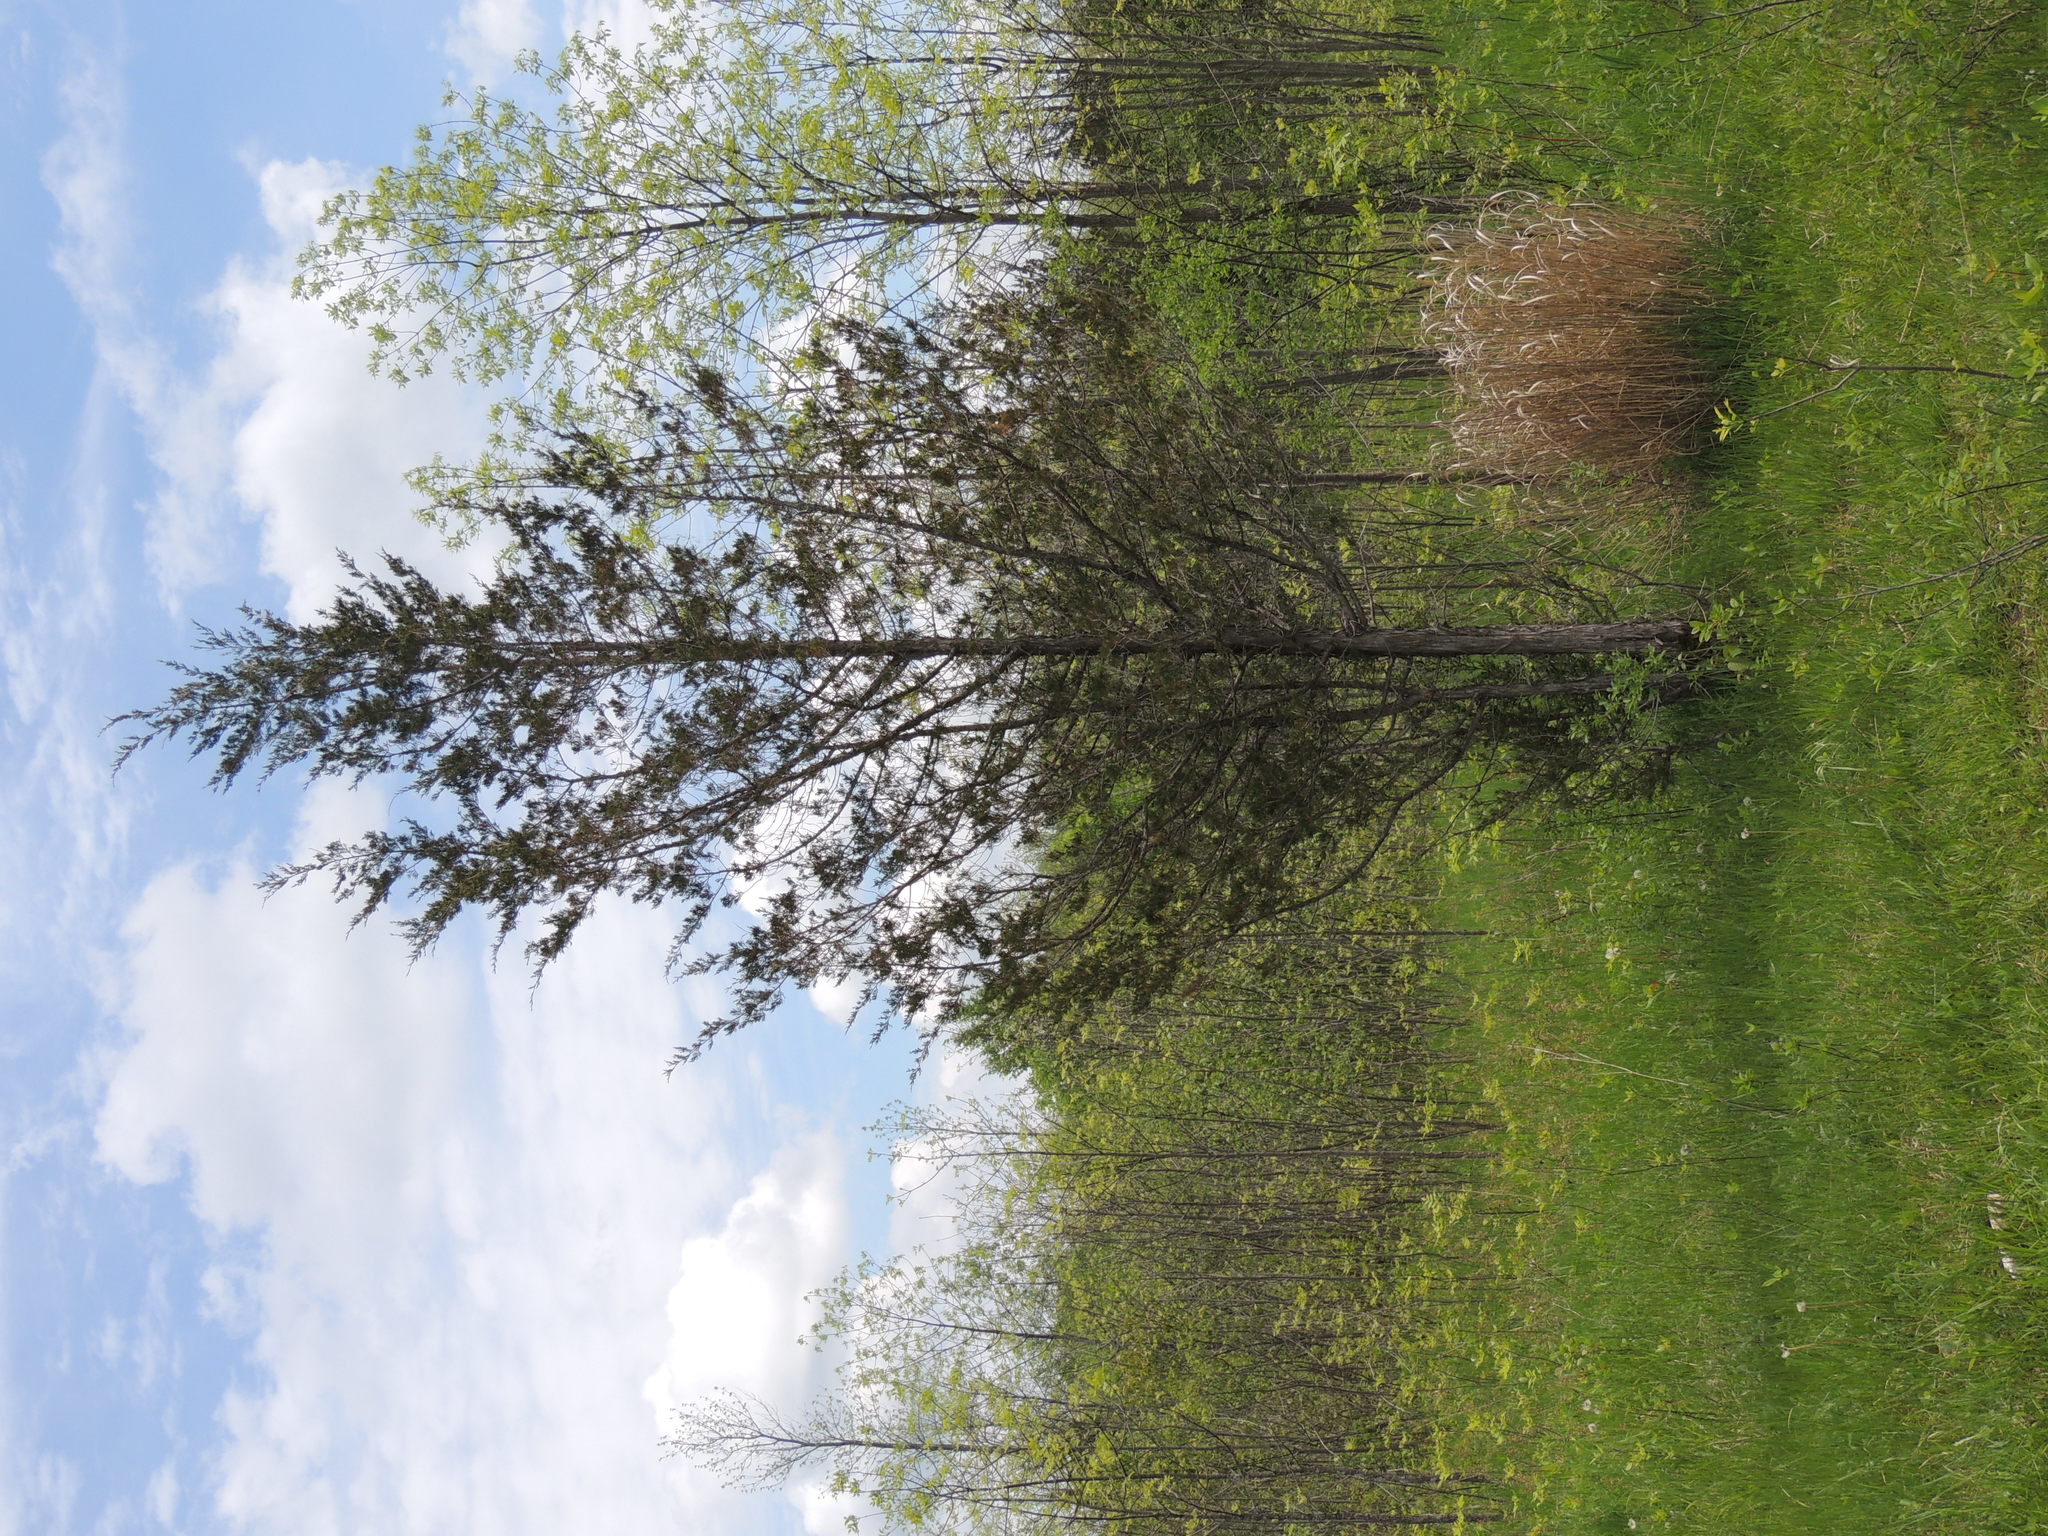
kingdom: Plantae
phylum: Tracheophyta
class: Pinopsida
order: Pinales
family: Cupressaceae
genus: Juniperus
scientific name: Juniperus virginiana
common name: Red juniper
